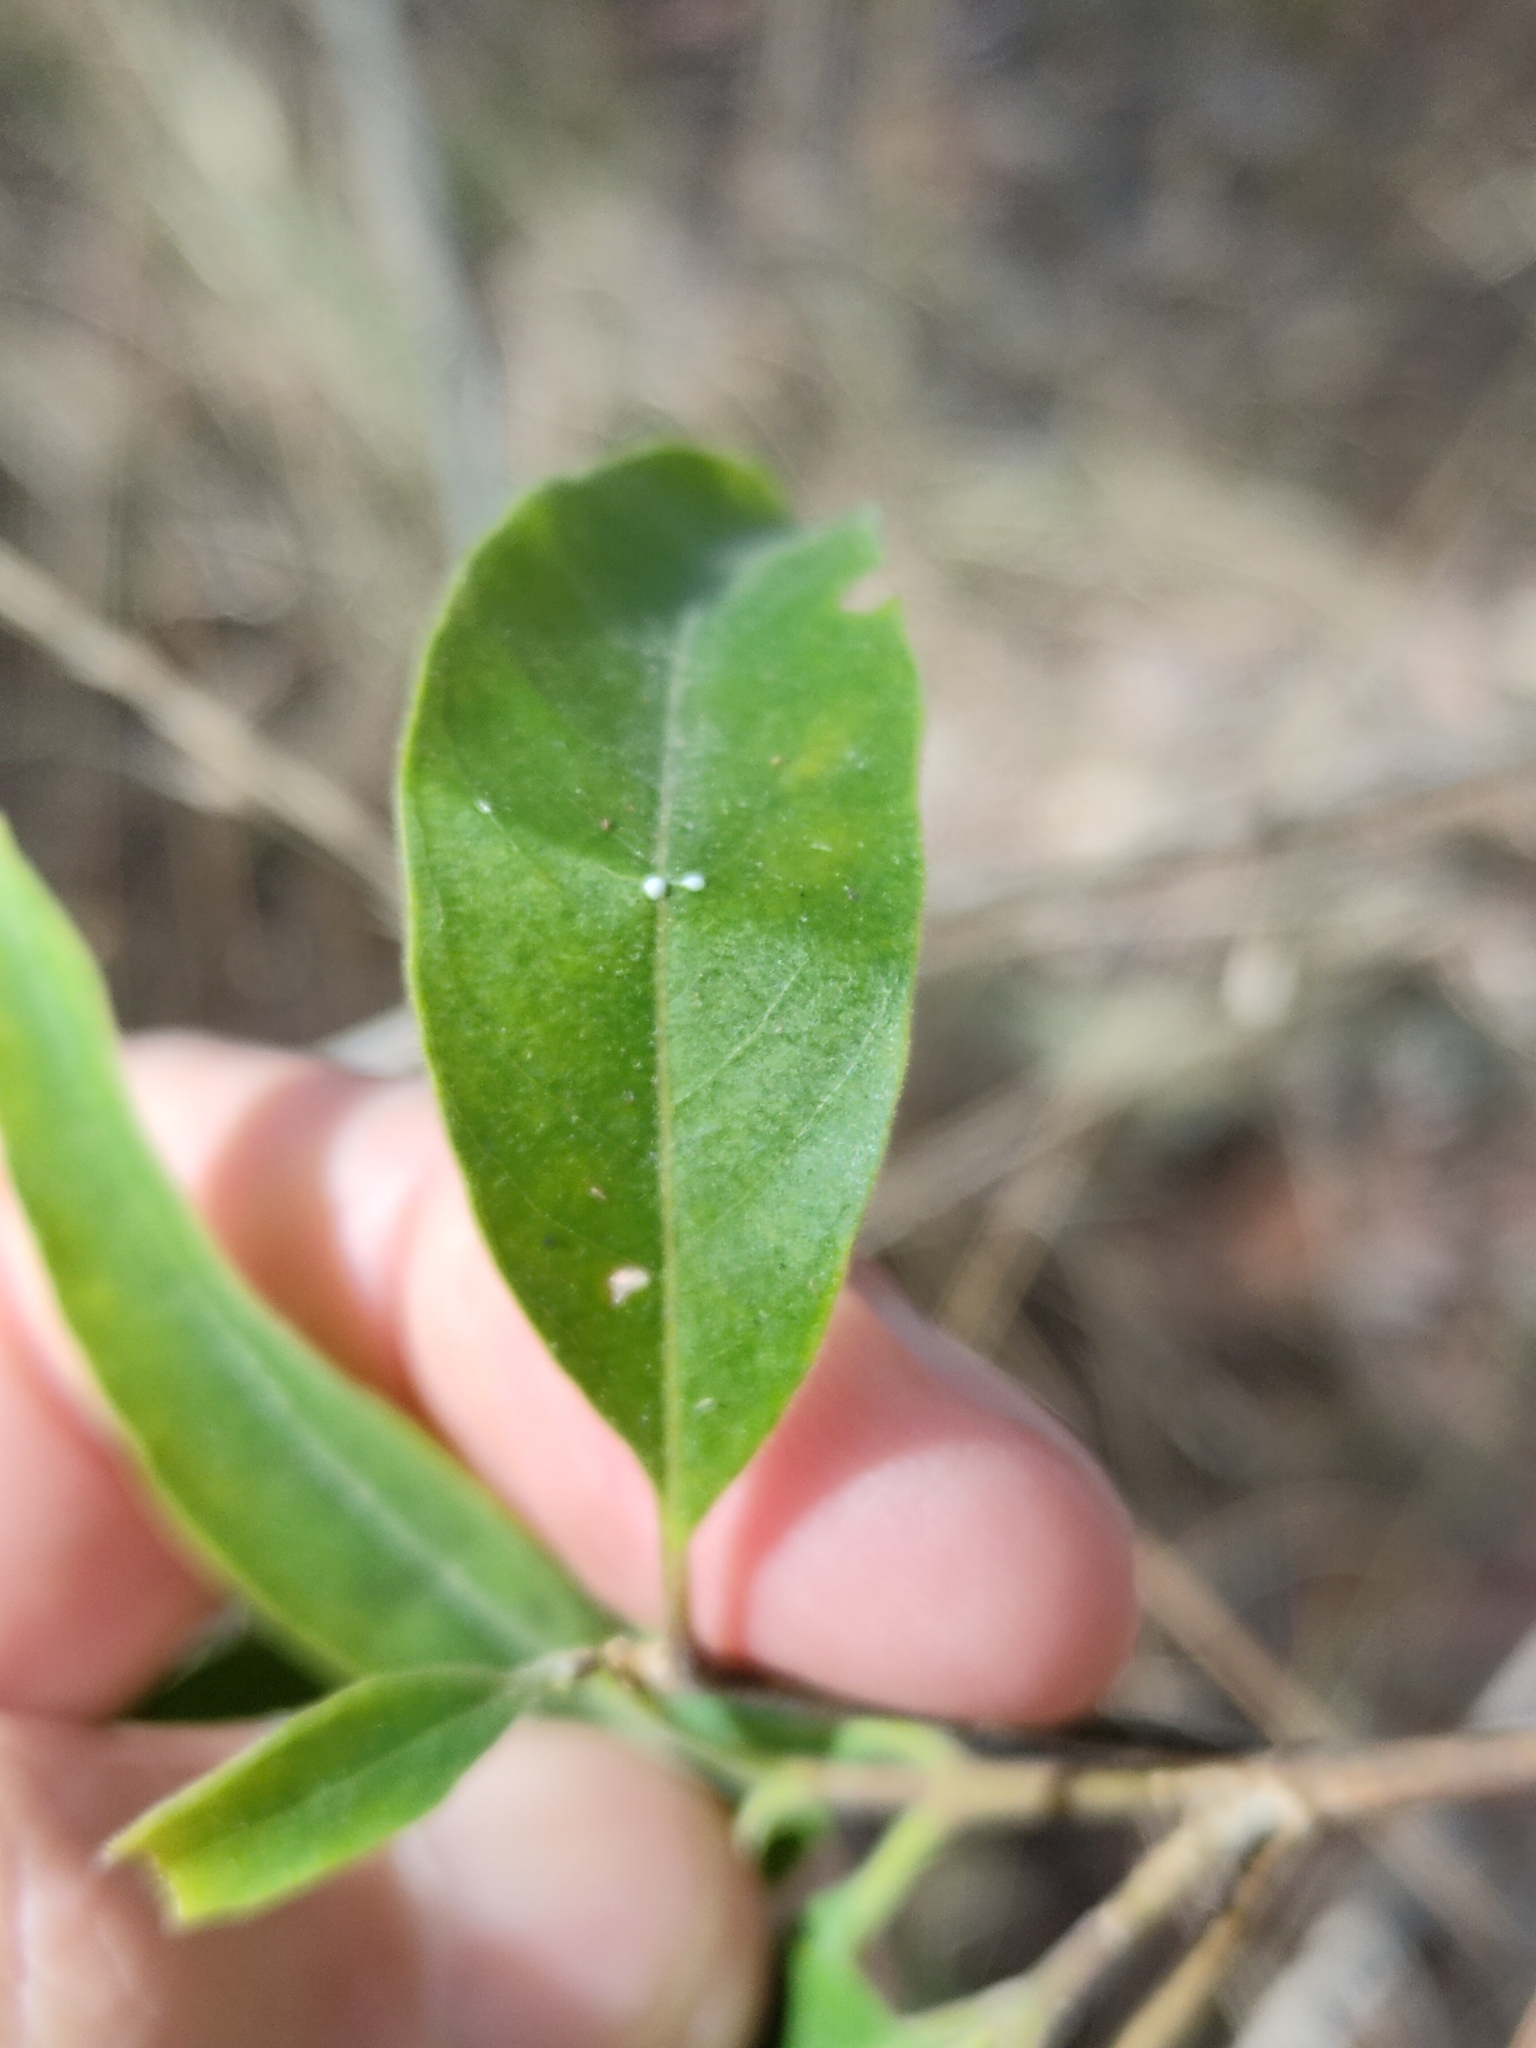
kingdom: Plantae
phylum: Tracheophyta
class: Magnoliopsida
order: Gentianales
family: Apocynaceae
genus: Alstonia
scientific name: Alstonia mollis
